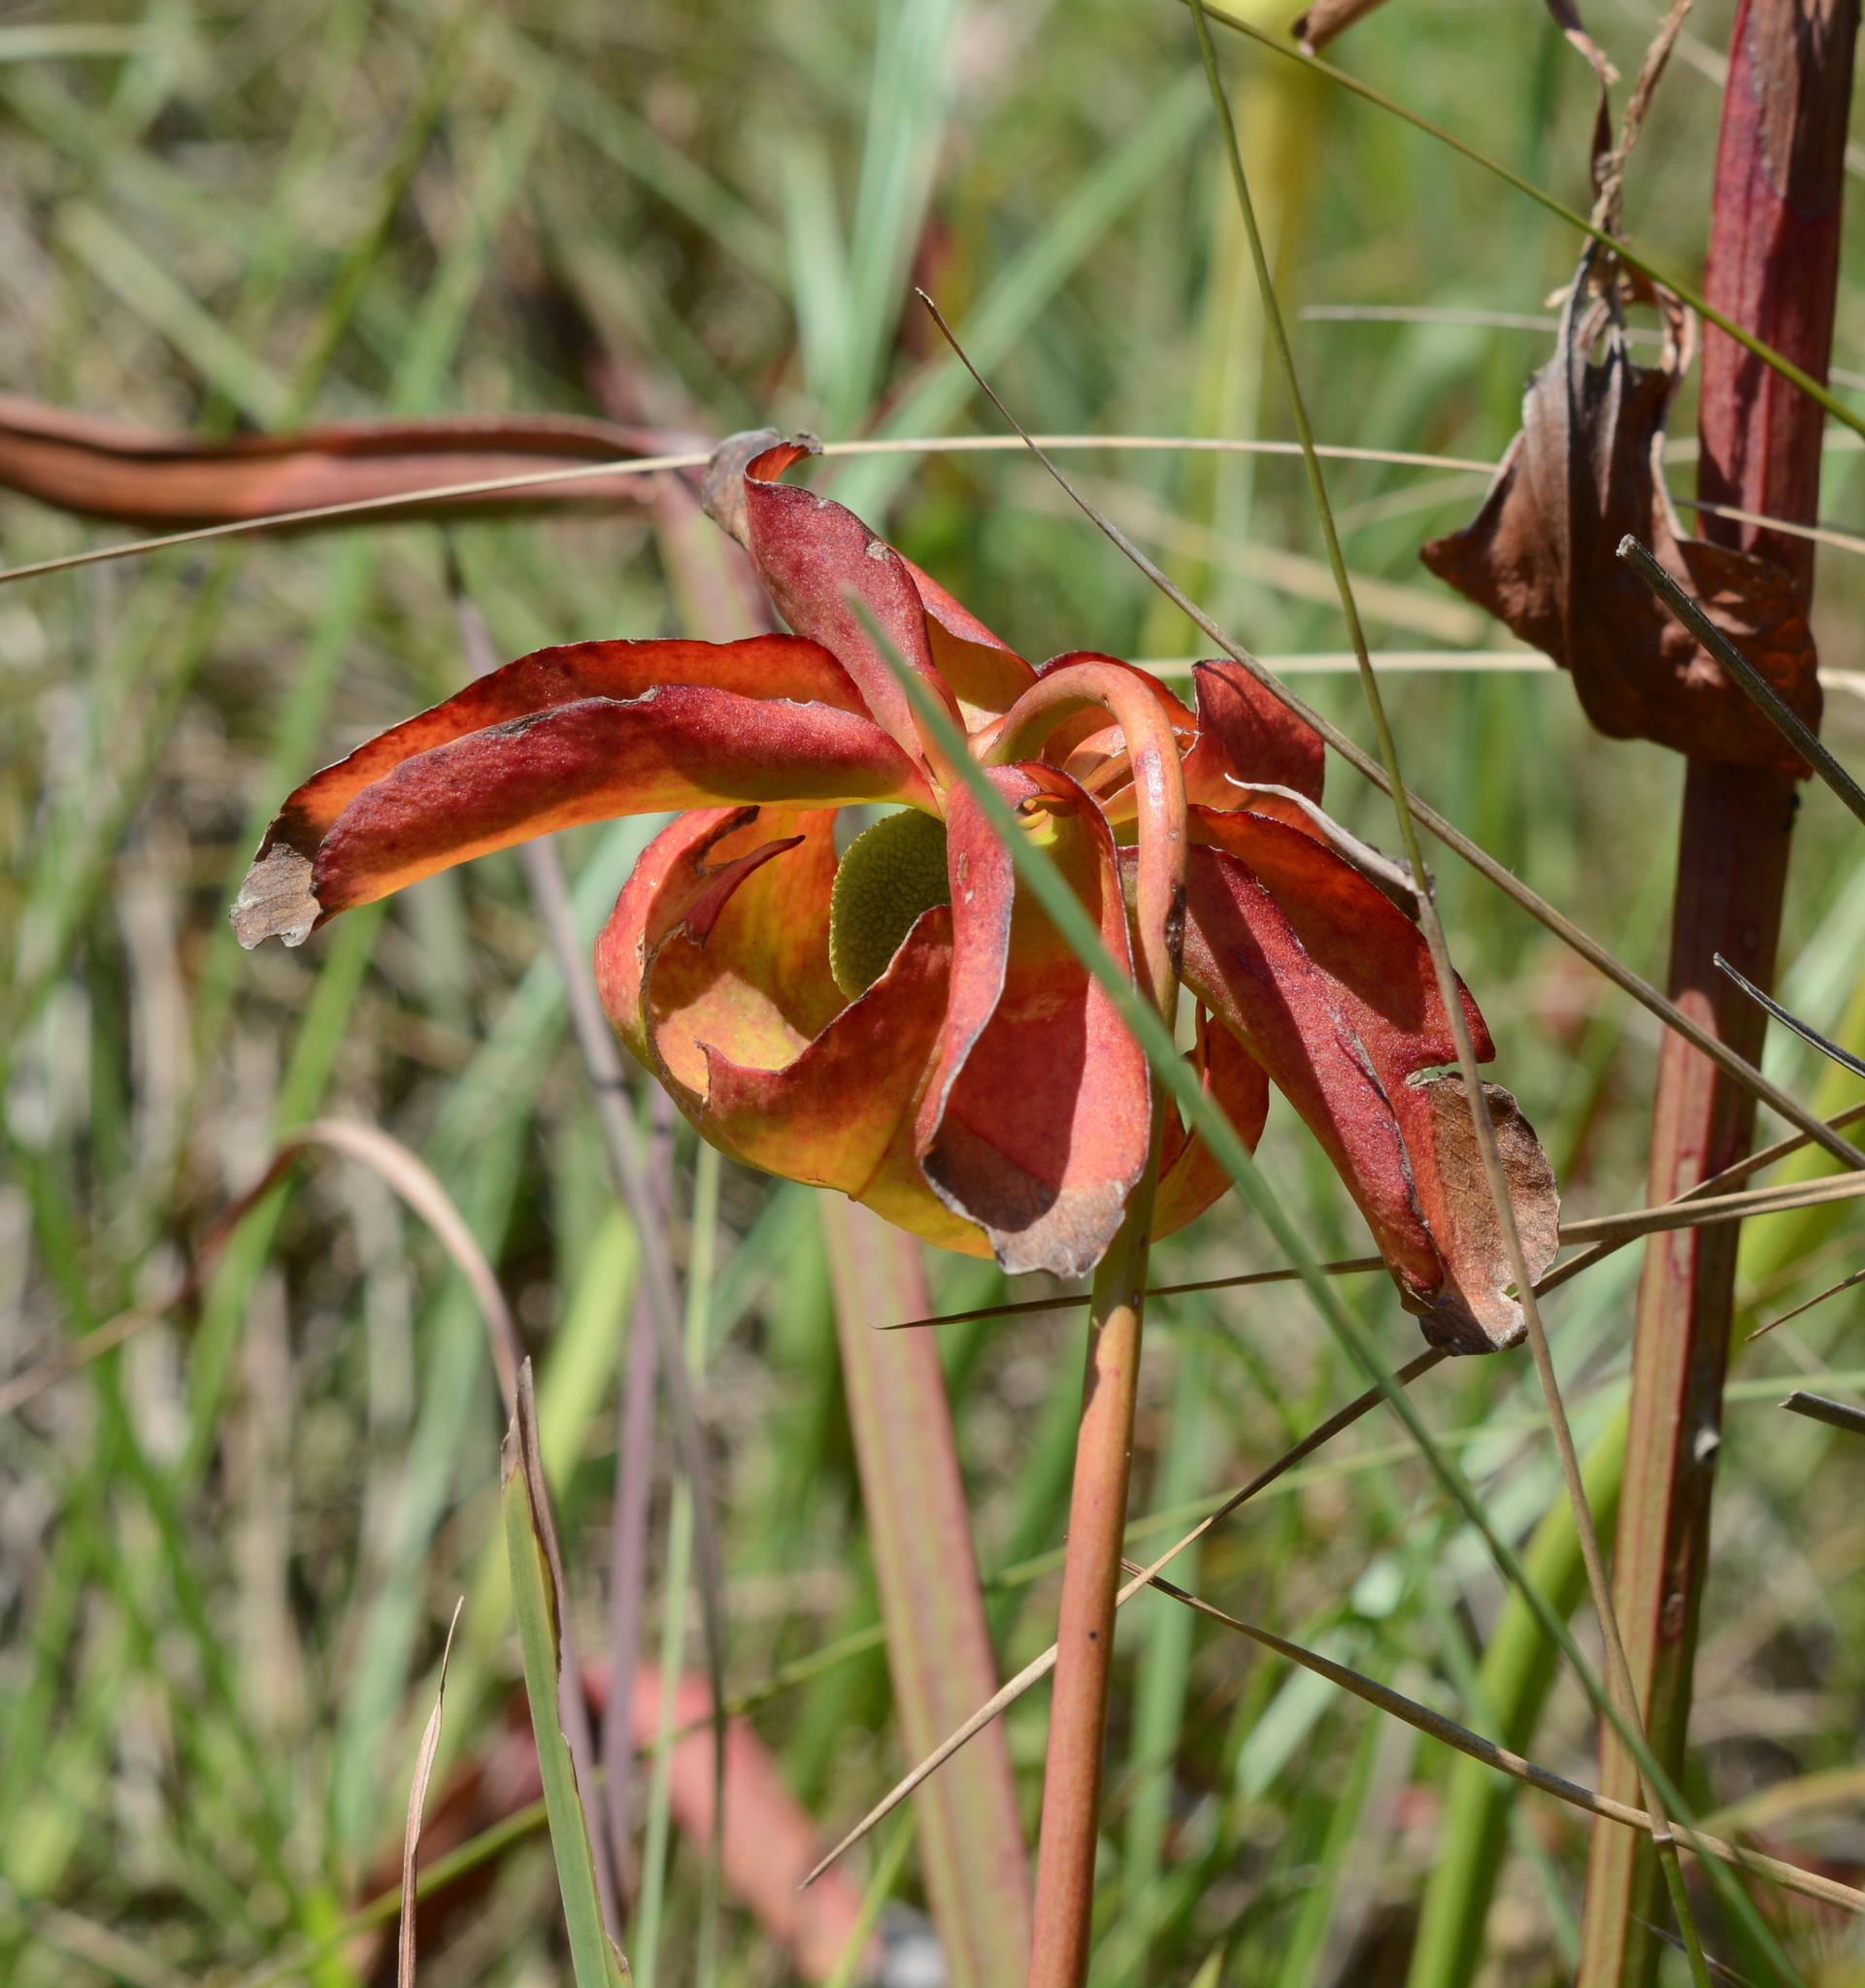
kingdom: Plantae
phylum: Tracheophyta
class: Magnoliopsida
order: Ericales
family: Sarraceniaceae
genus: Sarracenia
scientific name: Sarracenia alata
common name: Yellow trumpets
